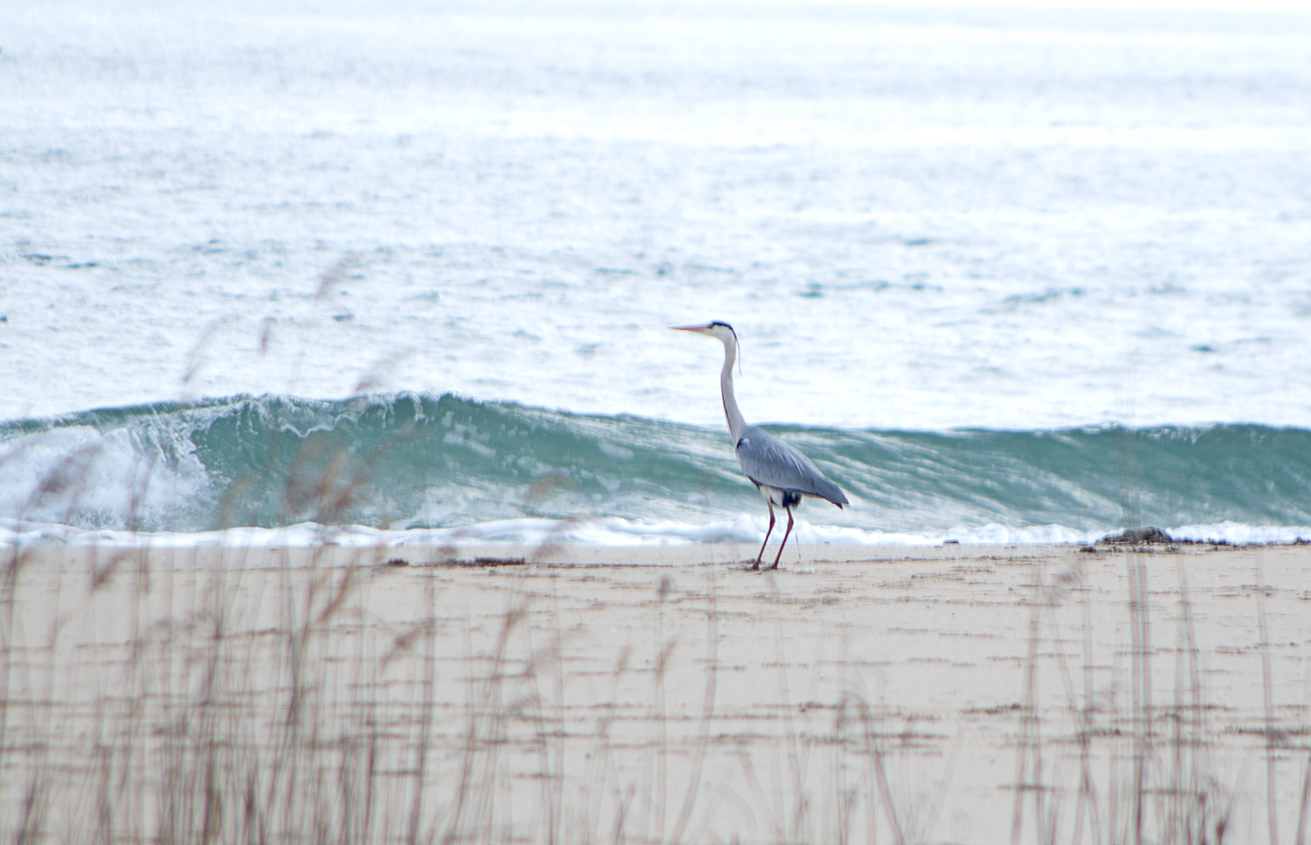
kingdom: Animalia
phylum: Chordata
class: Aves
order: Pelecaniformes
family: Ardeidae
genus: Ardea
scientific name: Ardea cinerea
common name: Grey heron
